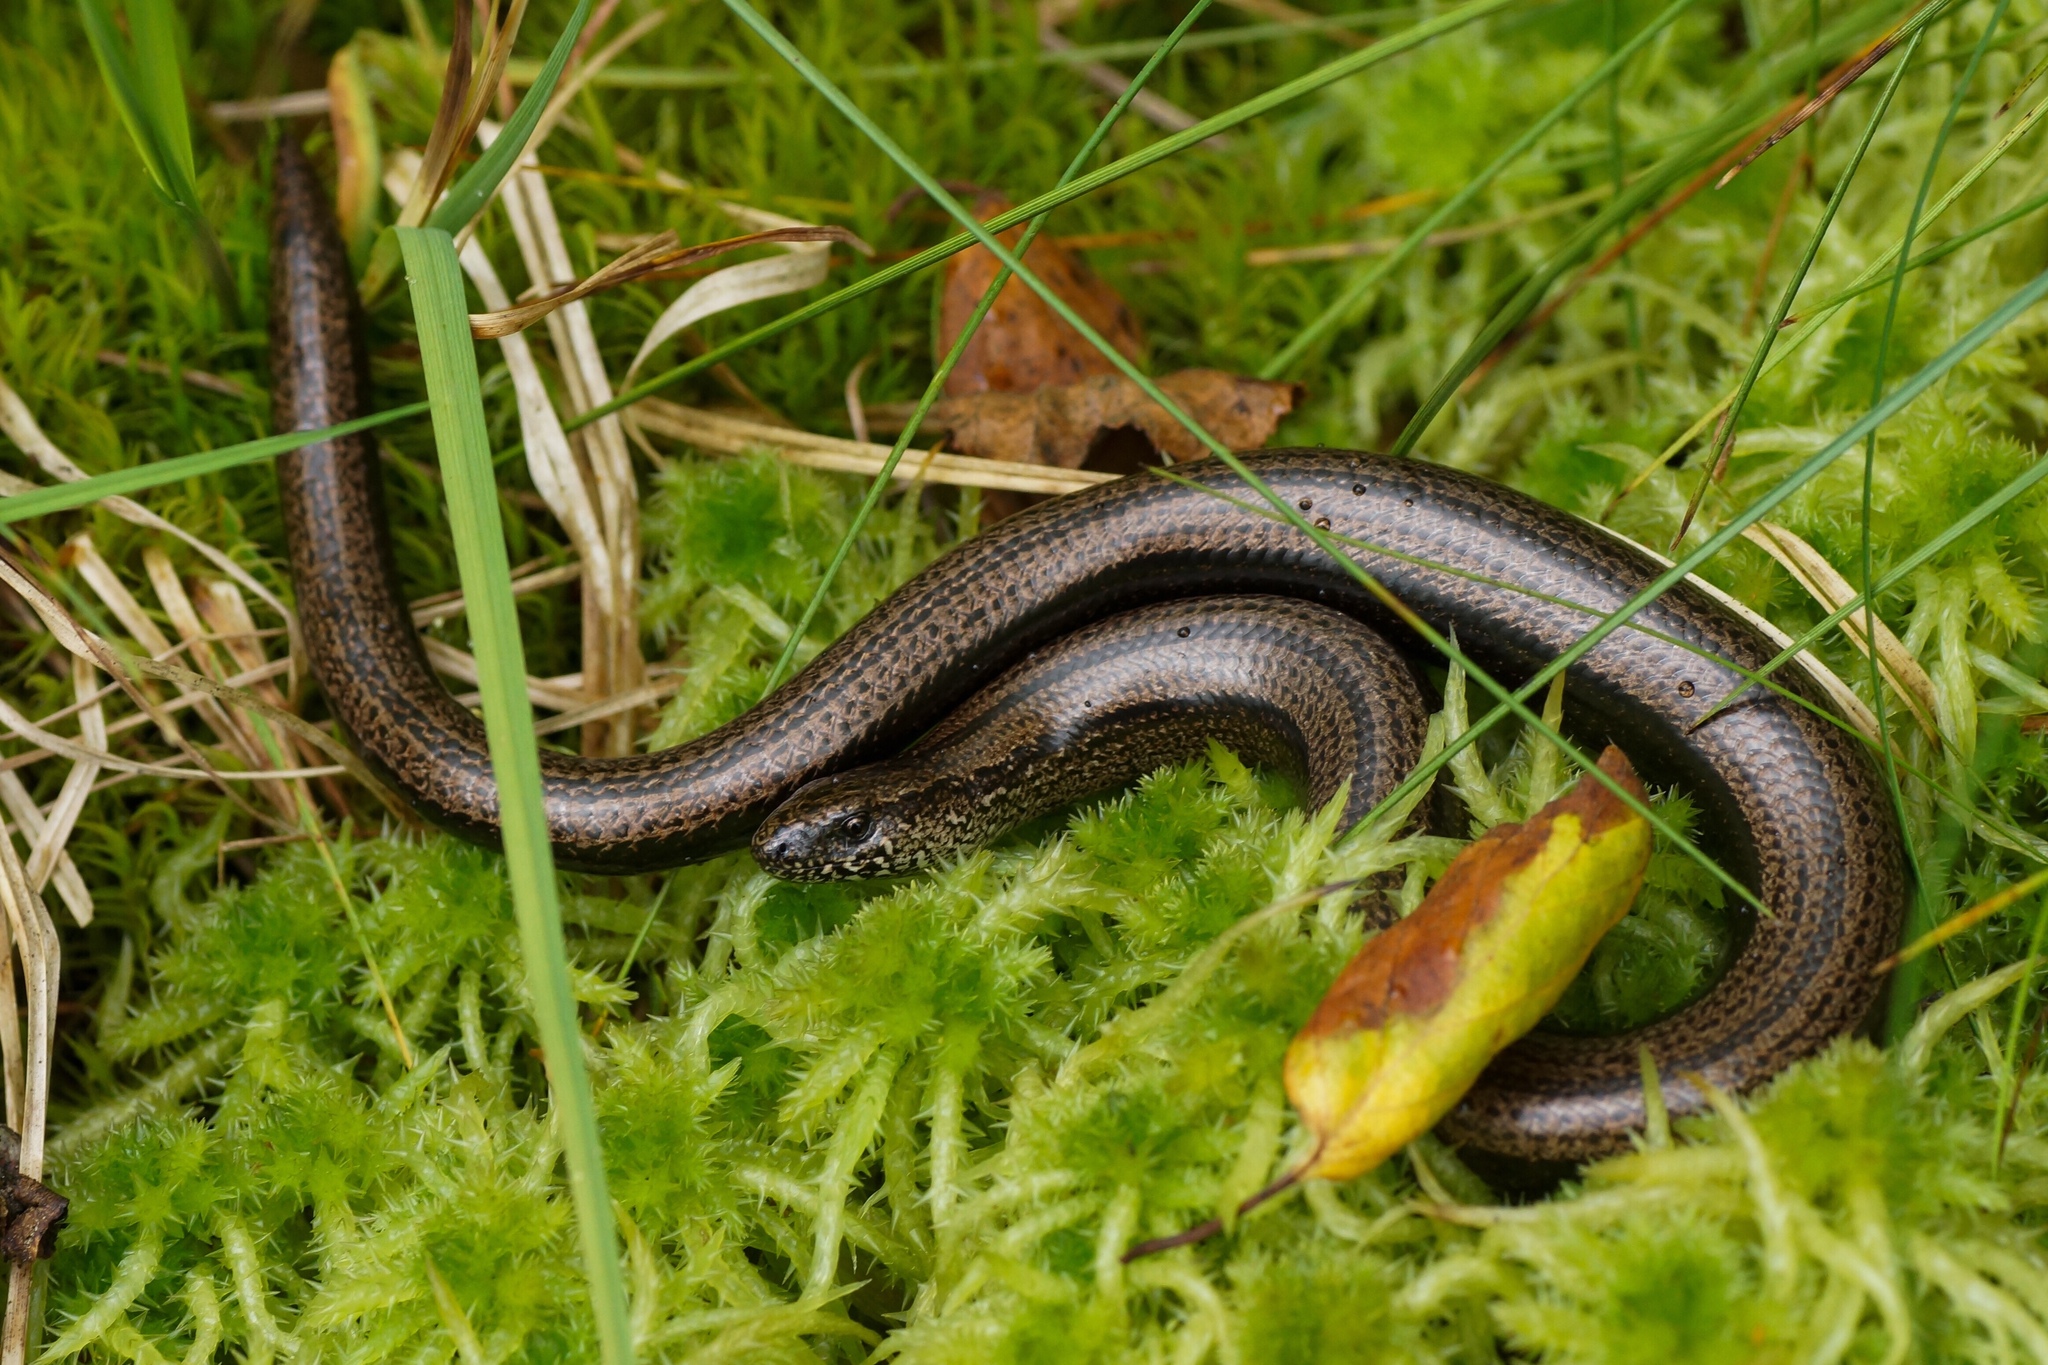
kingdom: Animalia
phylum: Chordata
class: Squamata
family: Anguidae
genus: Anguis
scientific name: Anguis fragilis
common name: Slow worm
